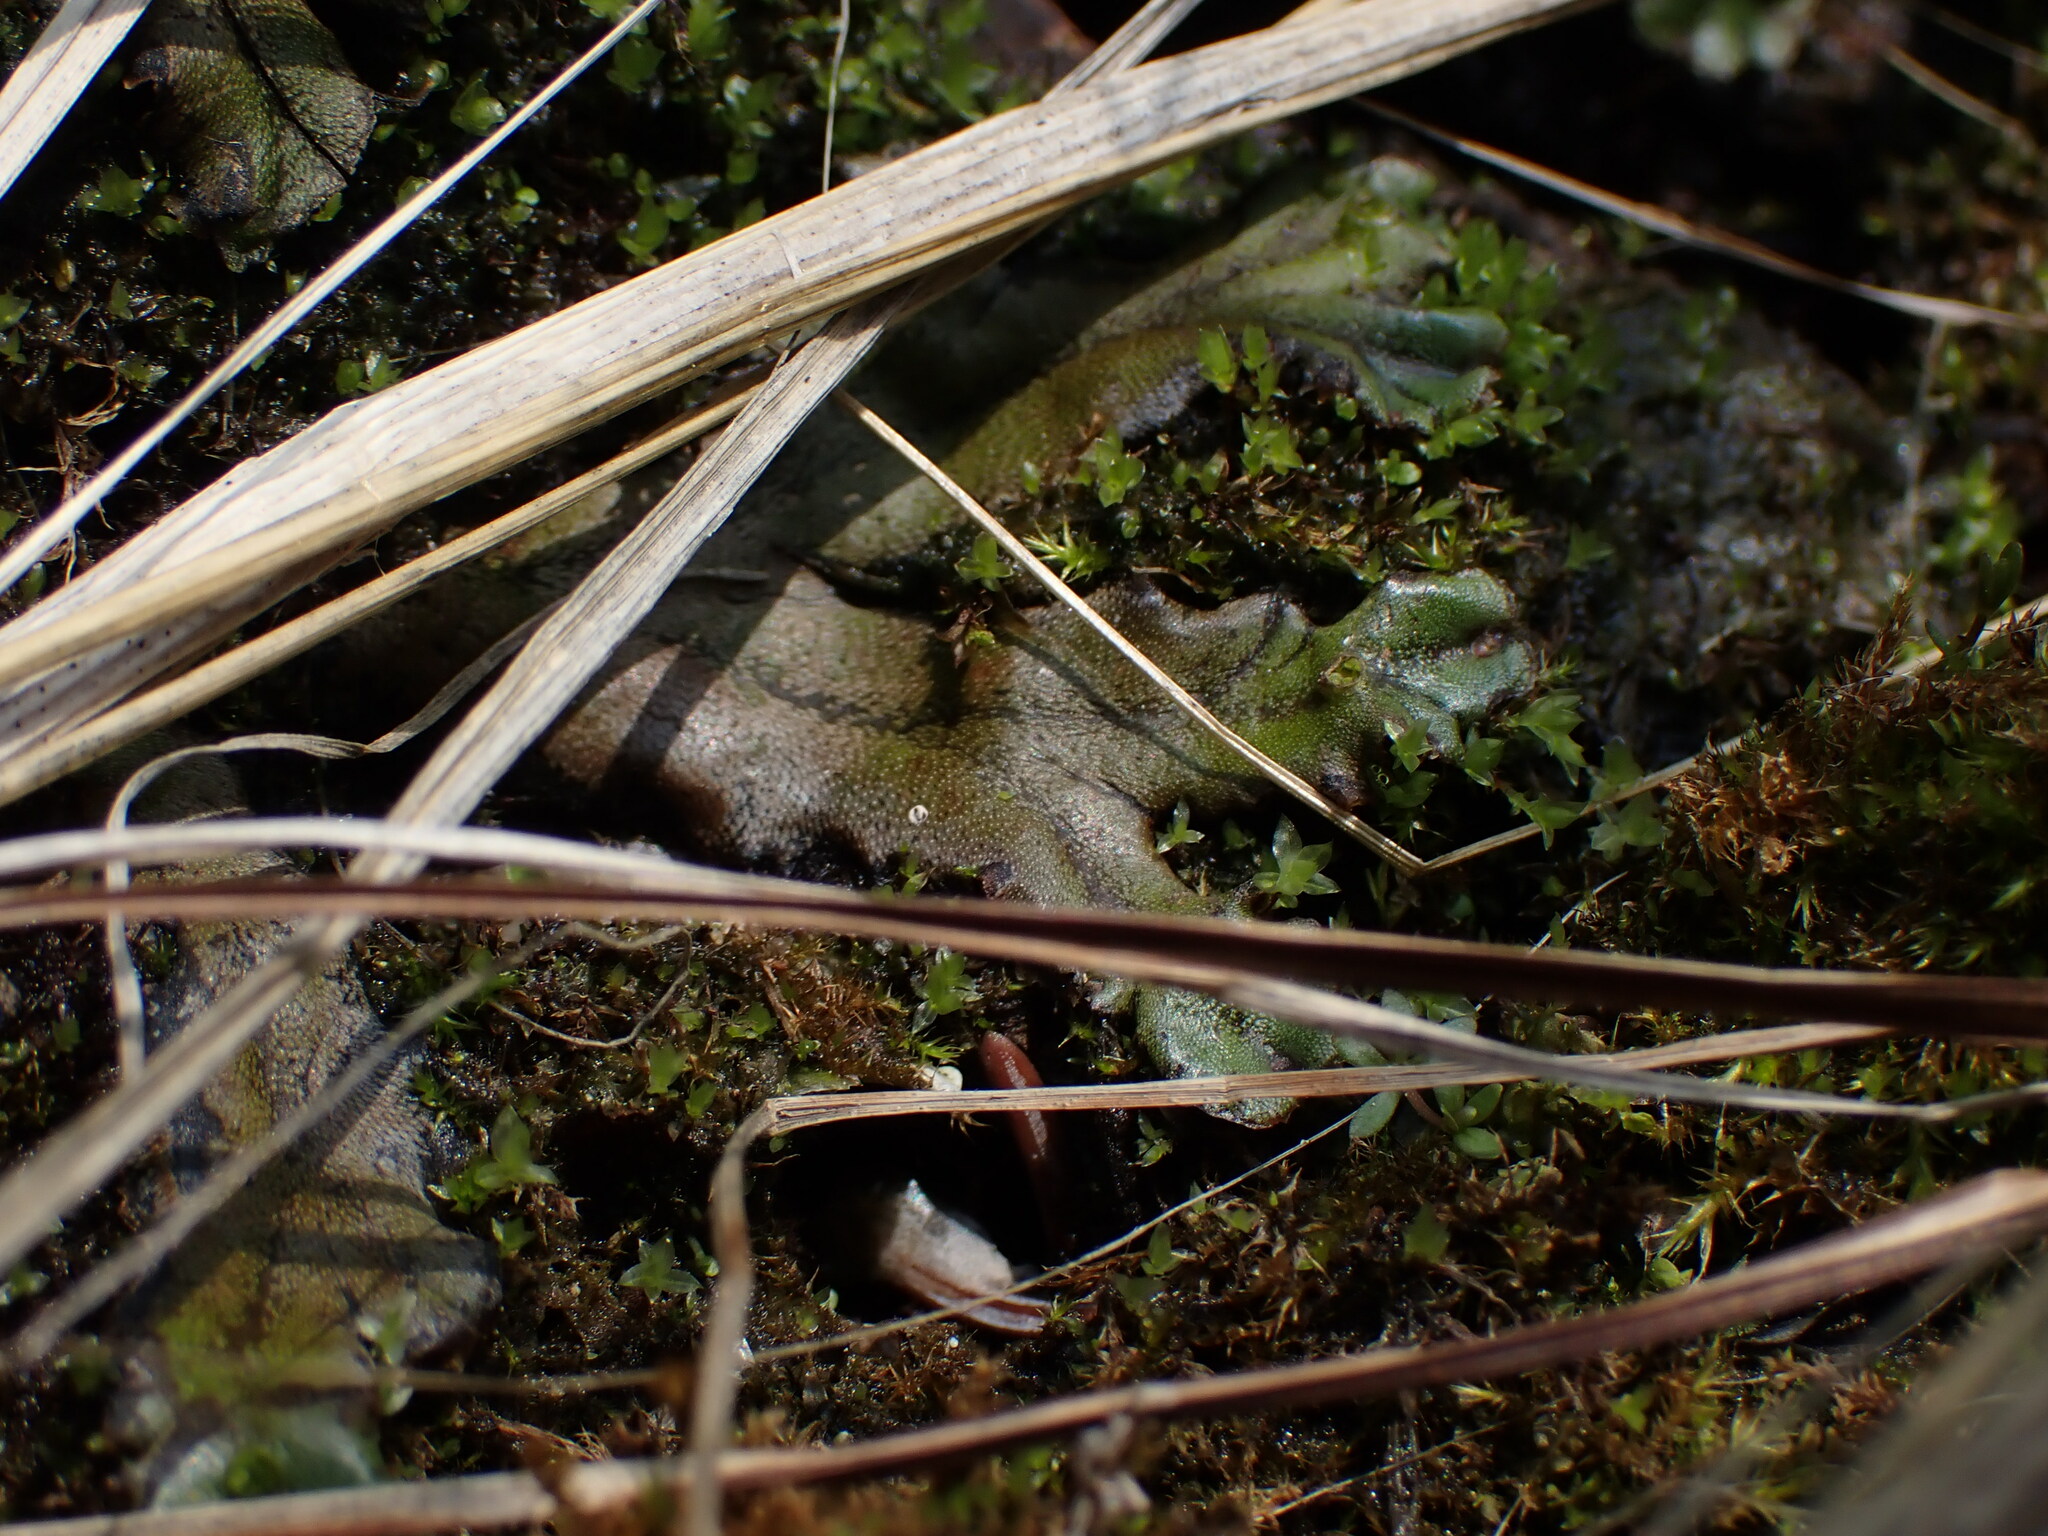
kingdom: Plantae
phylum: Marchantiophyta
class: Marchantiopsida
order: Marchantiales
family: Marchantiaceae
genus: Marchantia
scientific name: Marchantia polymorpha
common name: Common liverwort
